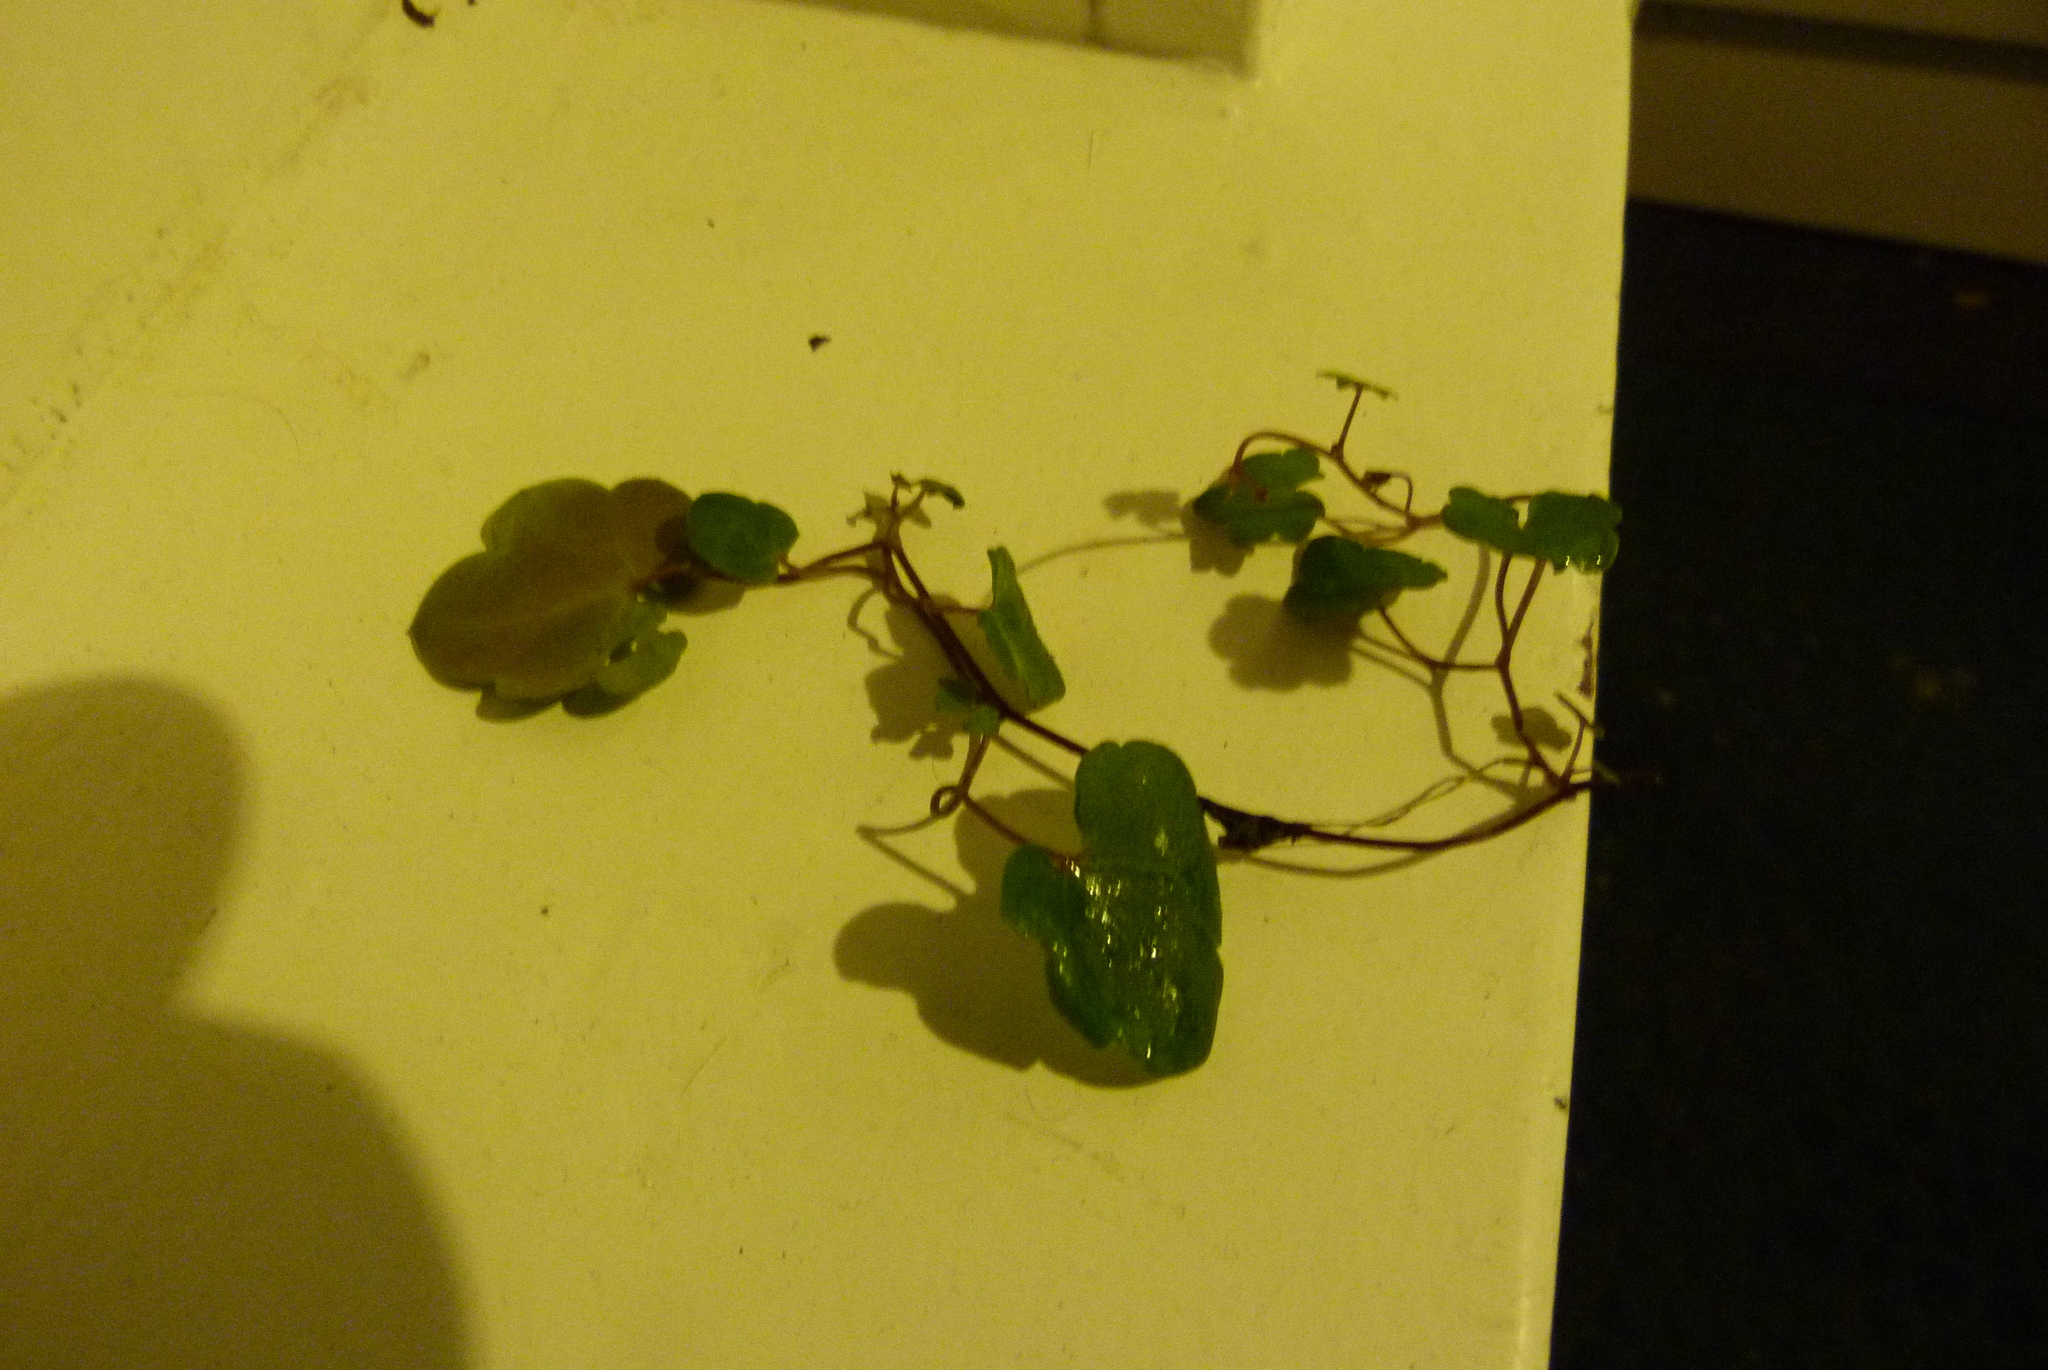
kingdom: Plantae
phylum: Tracheophyta
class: Magnoliopsida
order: Lamiales
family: Plantaginaceae
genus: Cymbalaria
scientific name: Cymbalaria muralis
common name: Ivy-leaved toadflax
